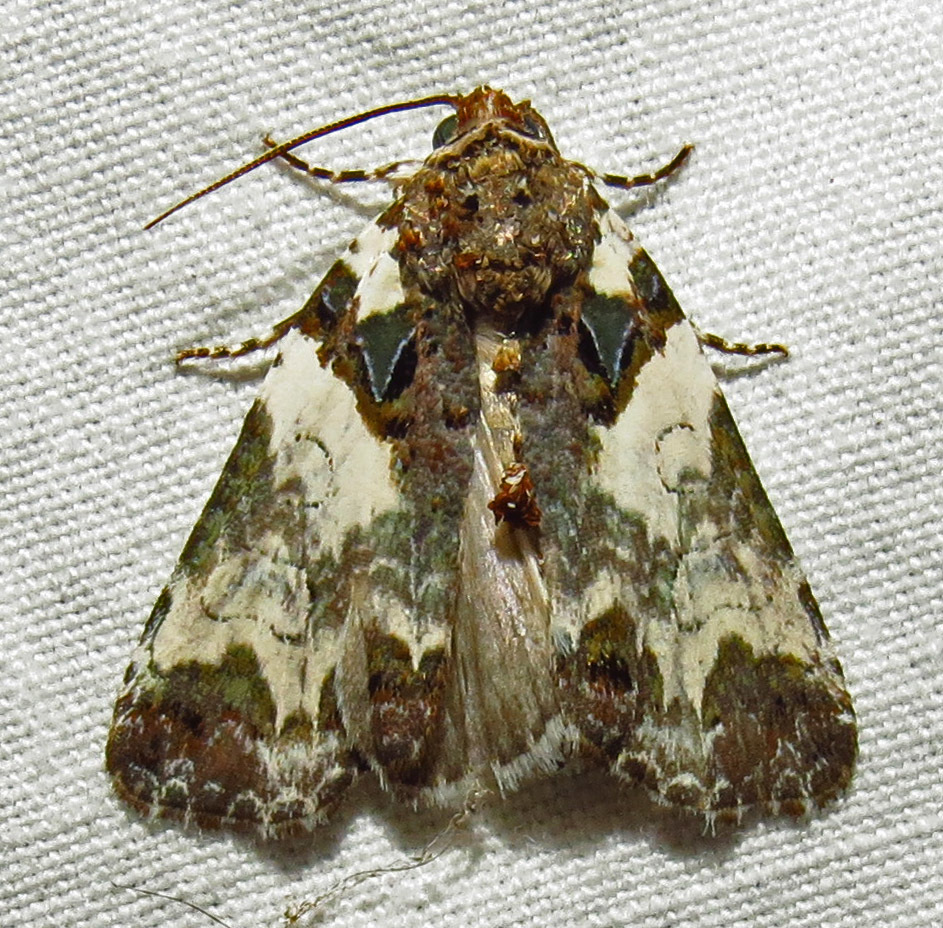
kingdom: Animalia
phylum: Arthropoda
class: Insecta
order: Lepidoptera
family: Noctuidae
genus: Cerma
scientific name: Cerma cerintha
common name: Tufted bird-dropping moth
